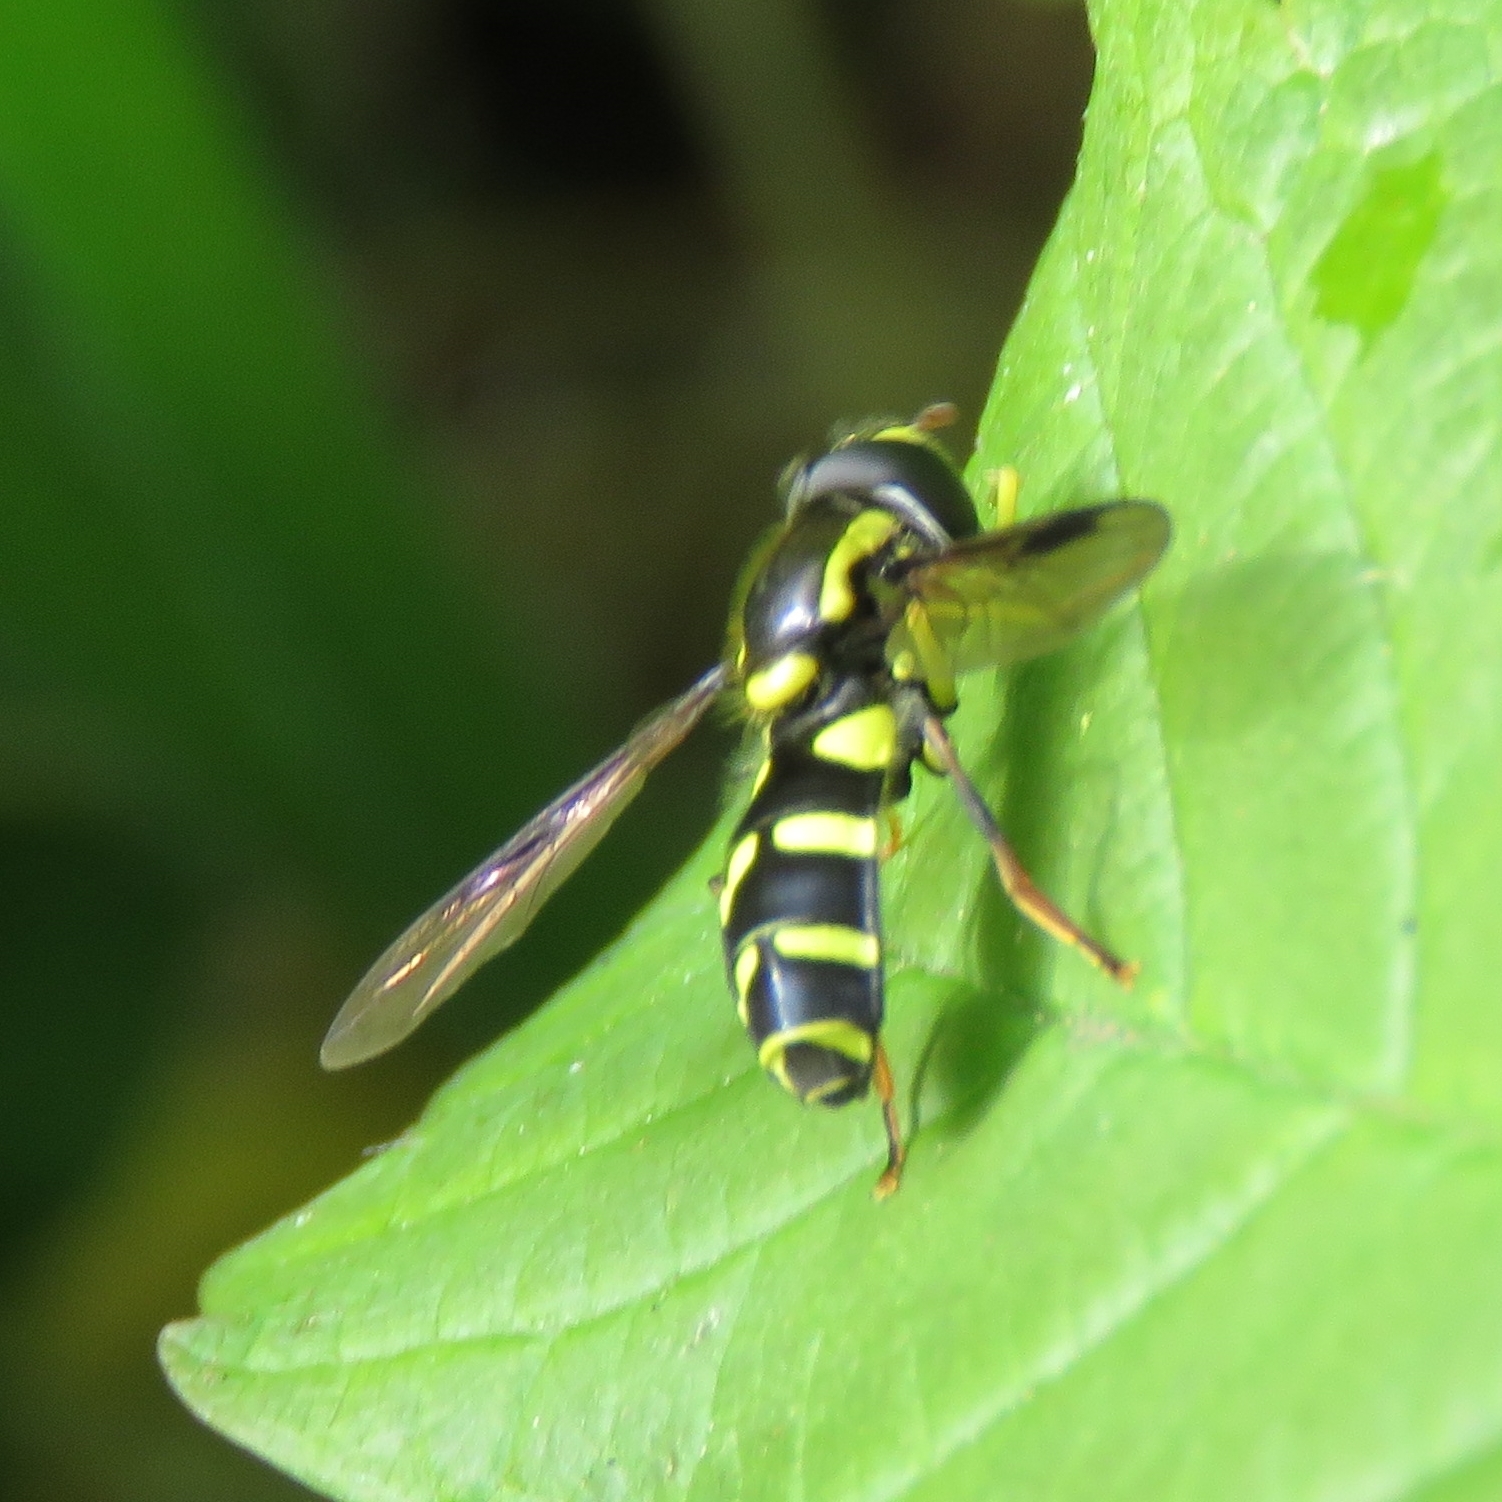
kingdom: Animalia
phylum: Arthropoda
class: Insecta
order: Diptera
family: Syrphidae
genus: Philhelius
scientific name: Philhelius pedissequum
